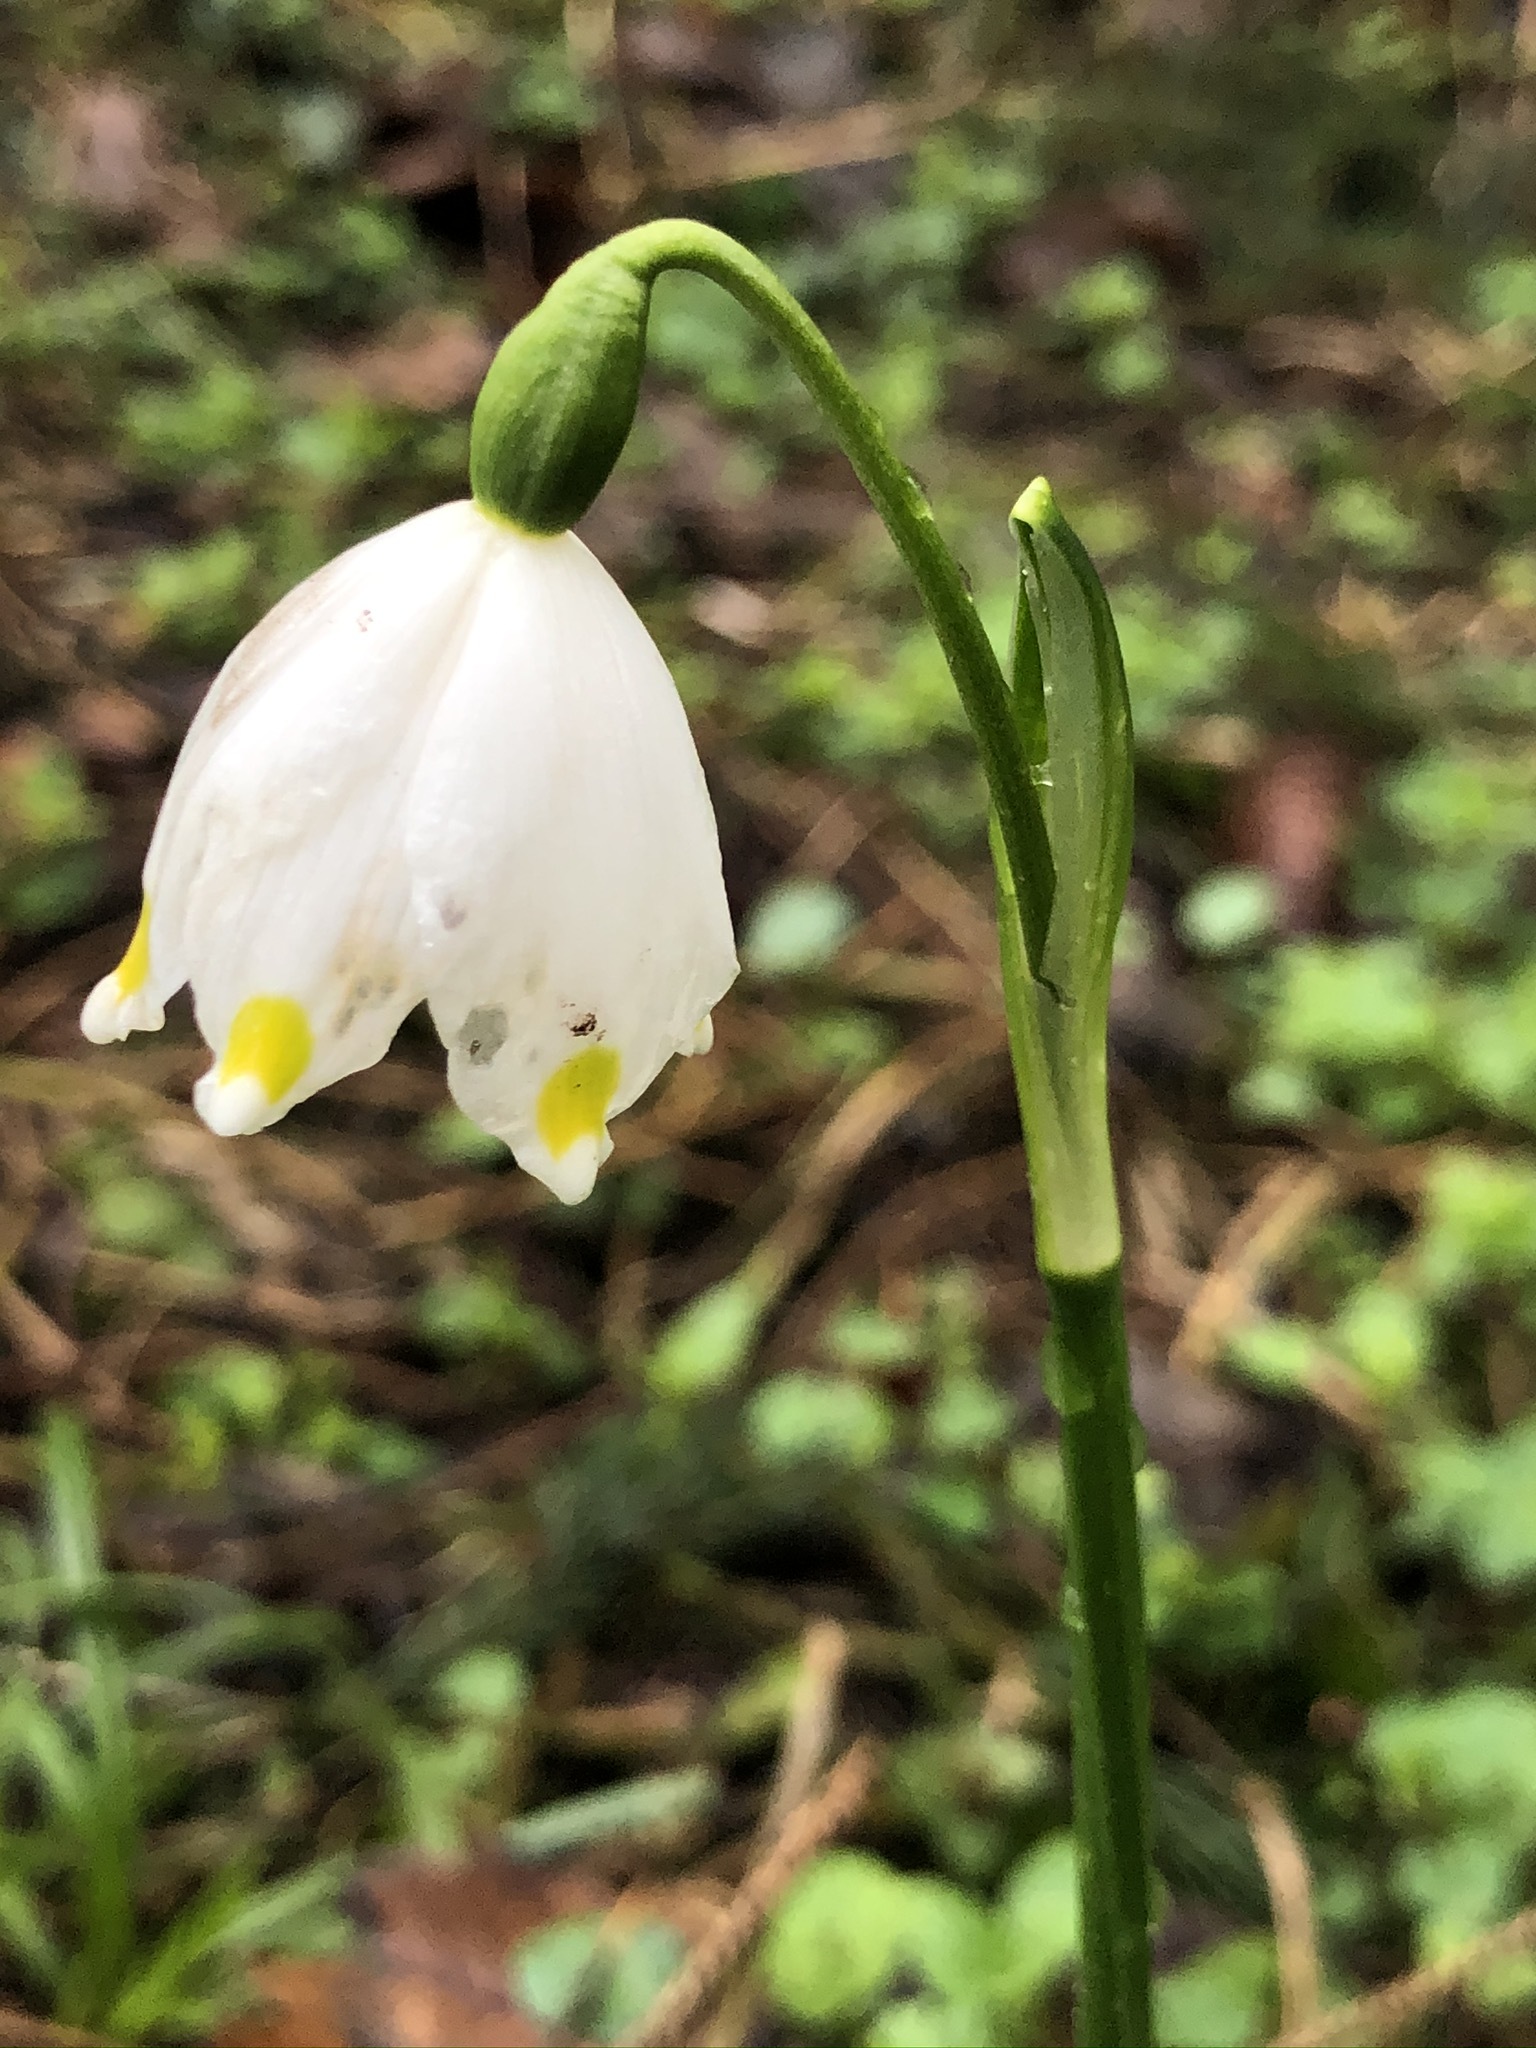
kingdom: Plantae
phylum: Tracheophyta
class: Liliopsida
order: Asparagales
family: Amaryllidaceae
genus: Leucojum
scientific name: Leucojum vernum
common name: Spring snowflake
